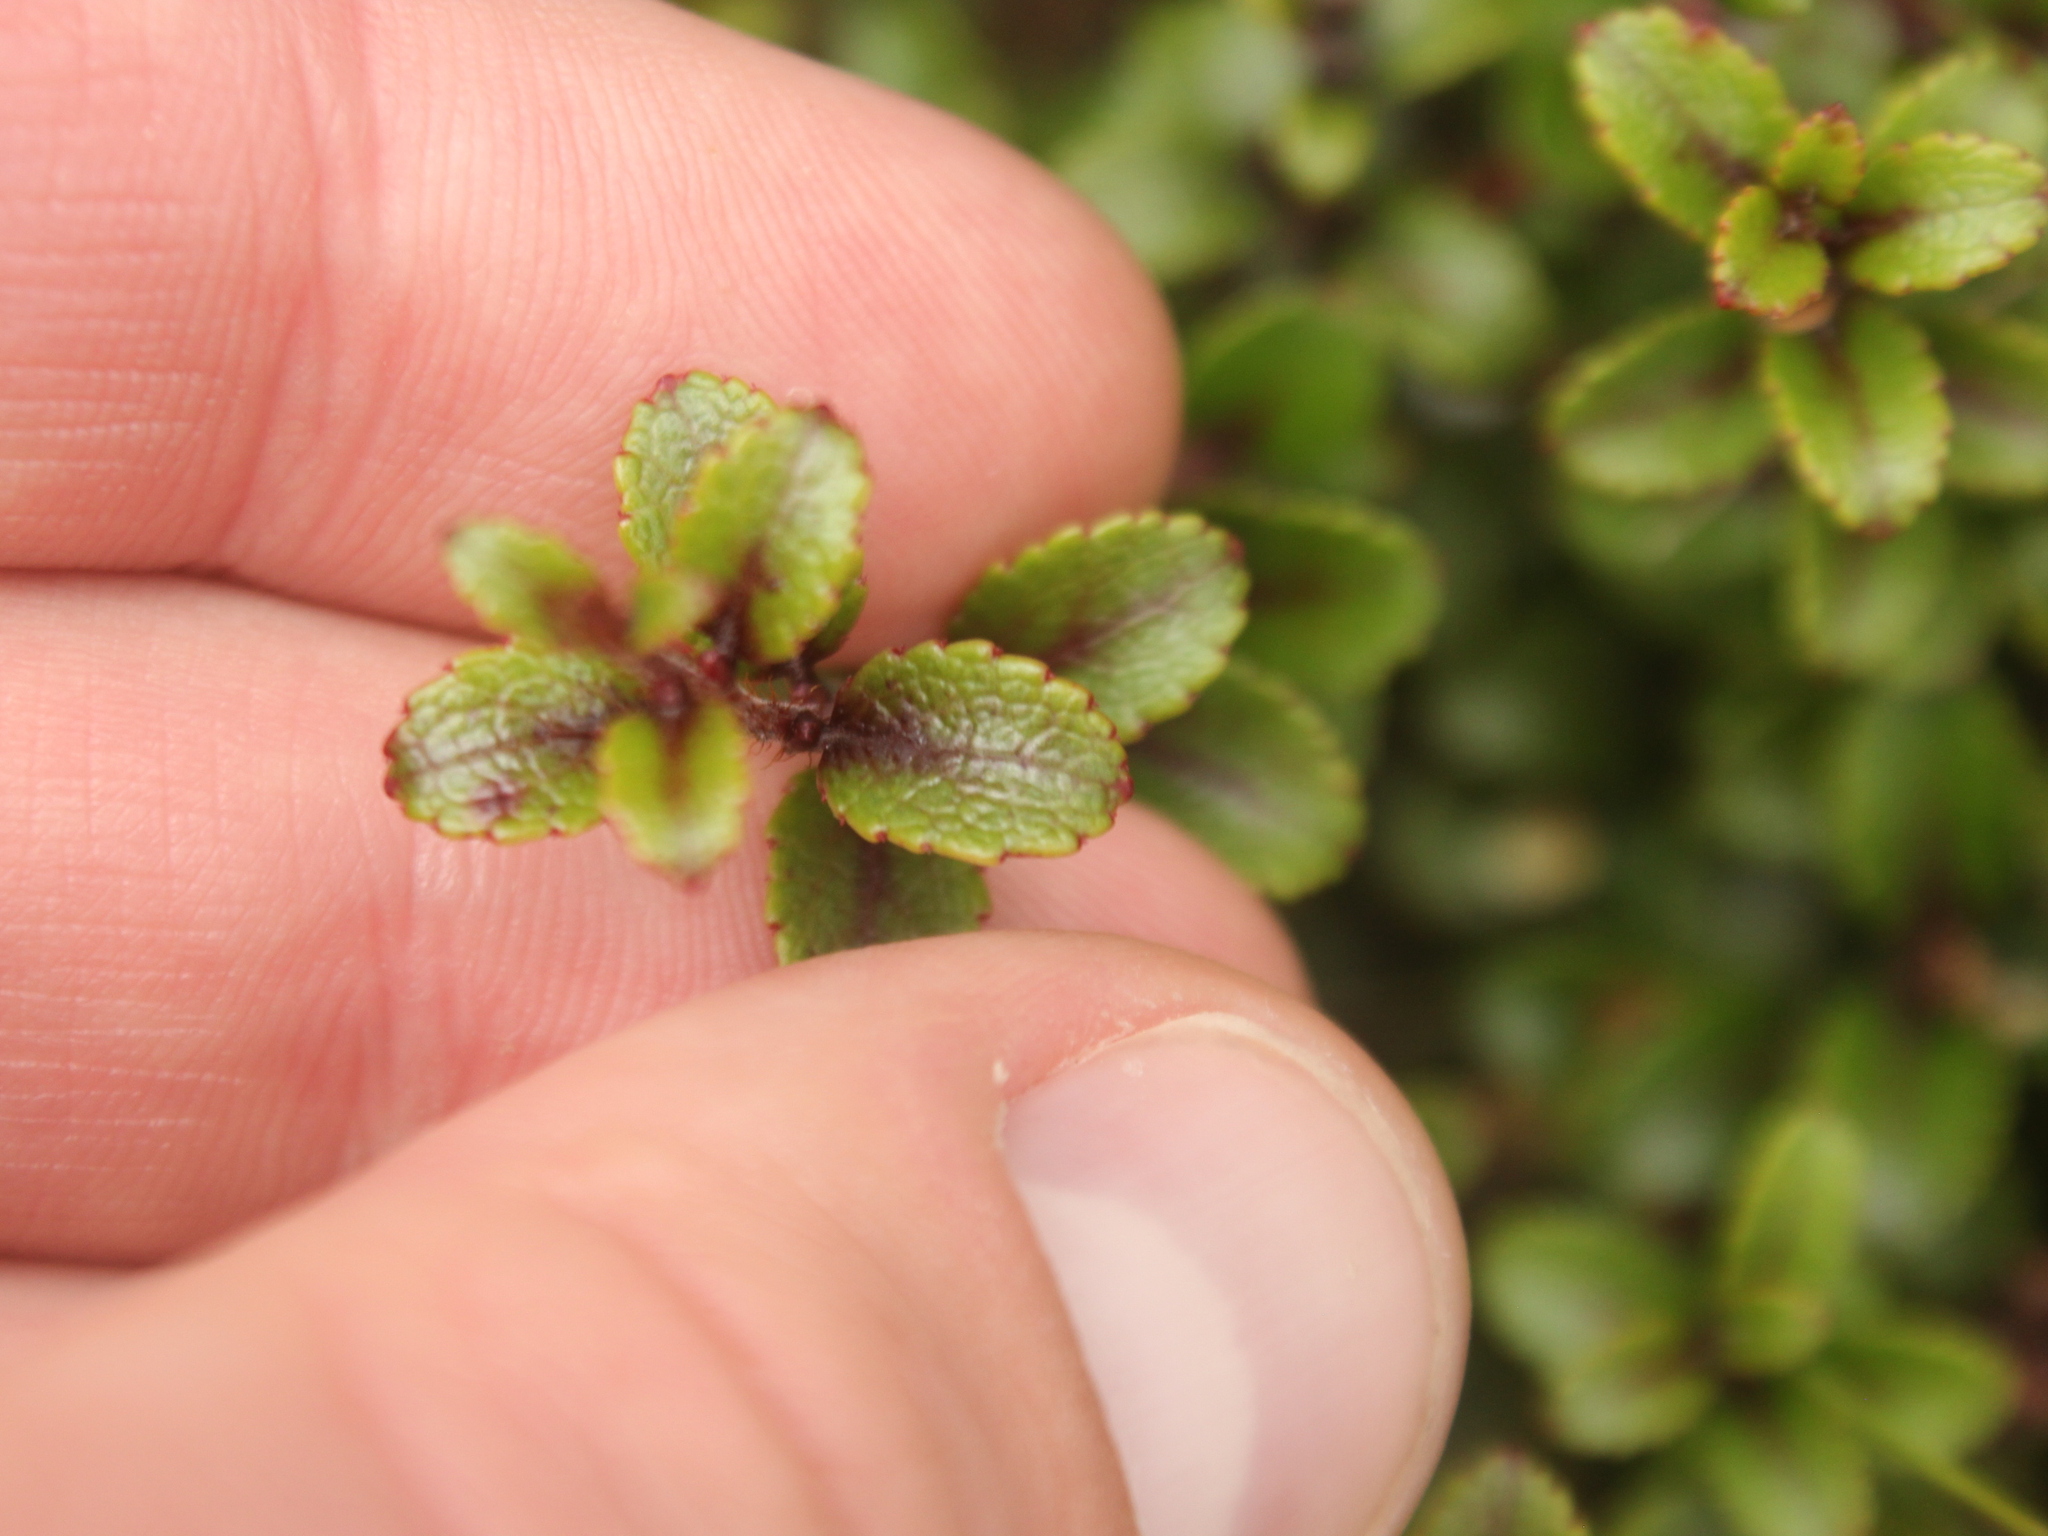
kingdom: Plantae
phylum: Tracheophyta
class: Magnoliopsida
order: Ericales
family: Ericaceae
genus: Gaultheria
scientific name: Gaultheria antipoda
